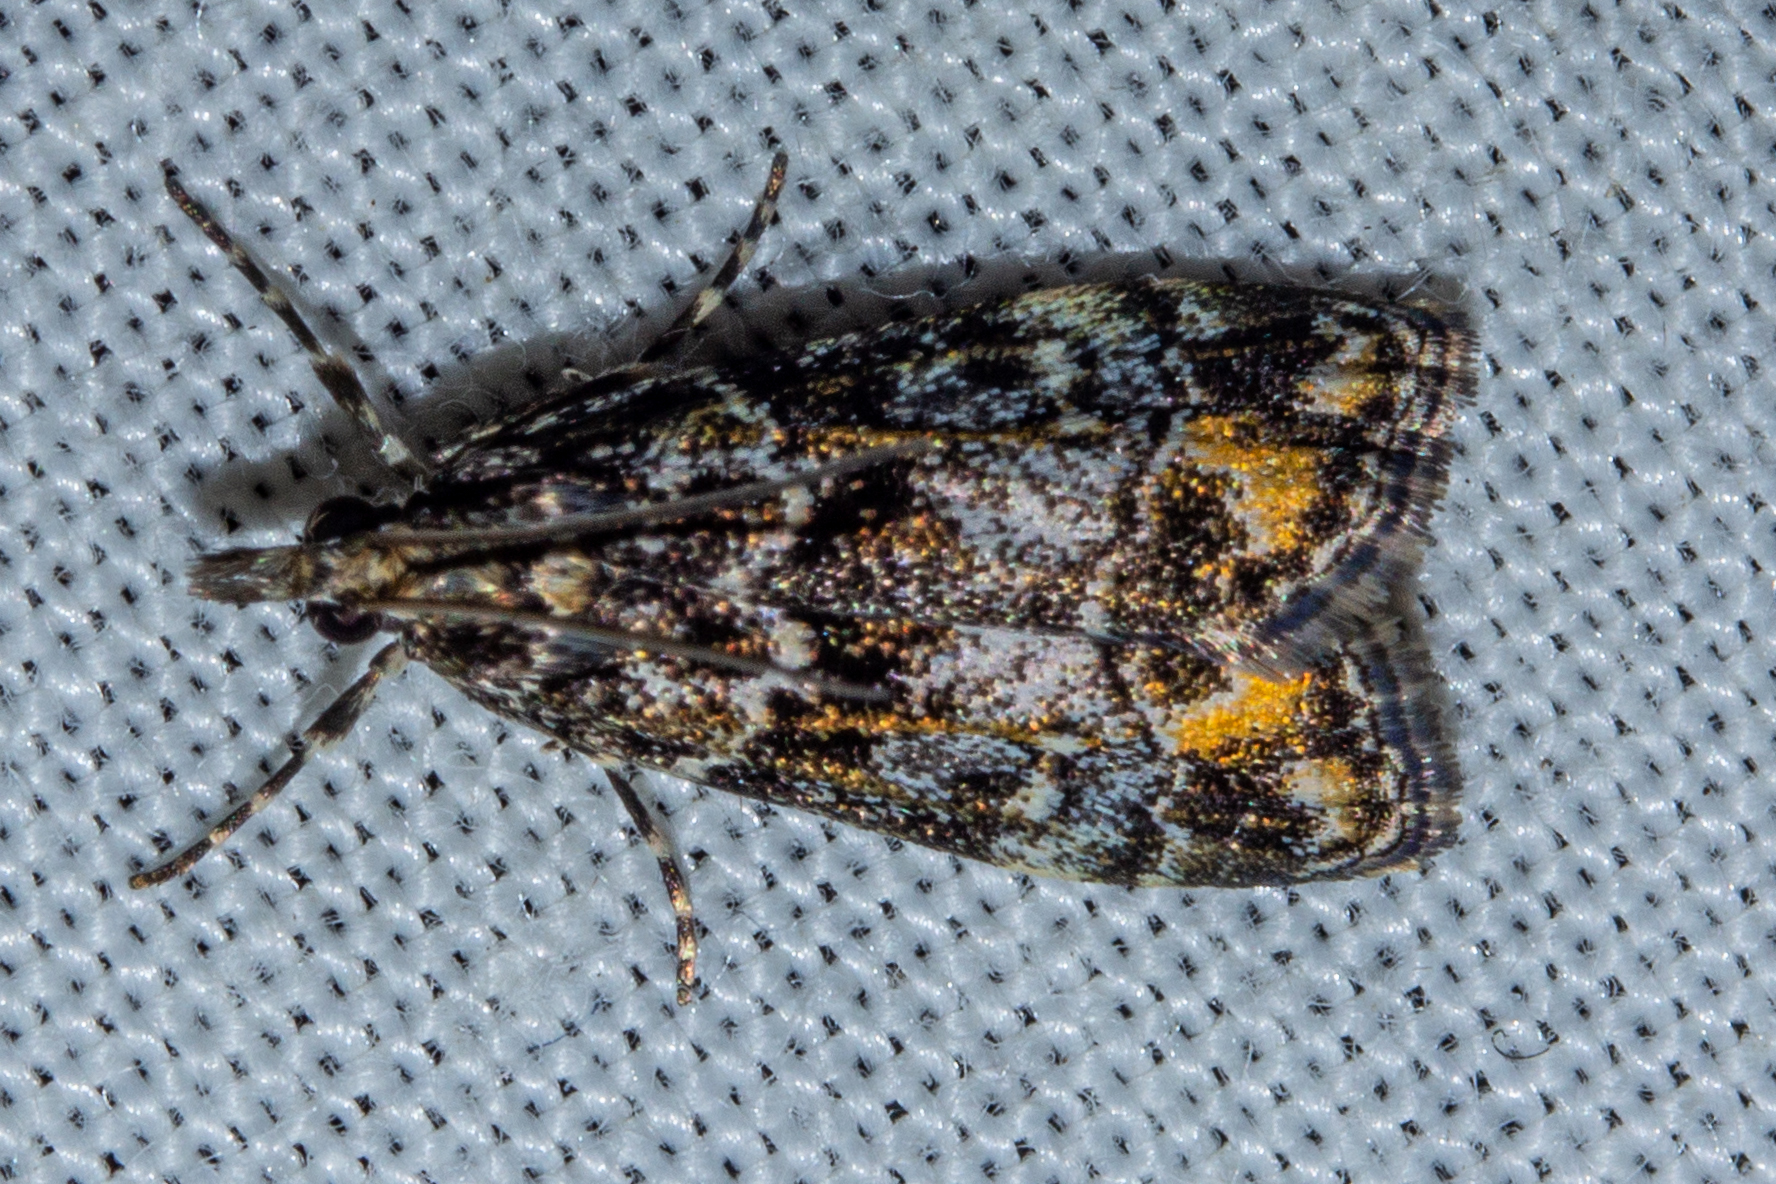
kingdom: Animalia
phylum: Arthropoda
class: Insecta
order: Lepidoptera
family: Crambidae
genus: Eudonia
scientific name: Eudonia minualis
